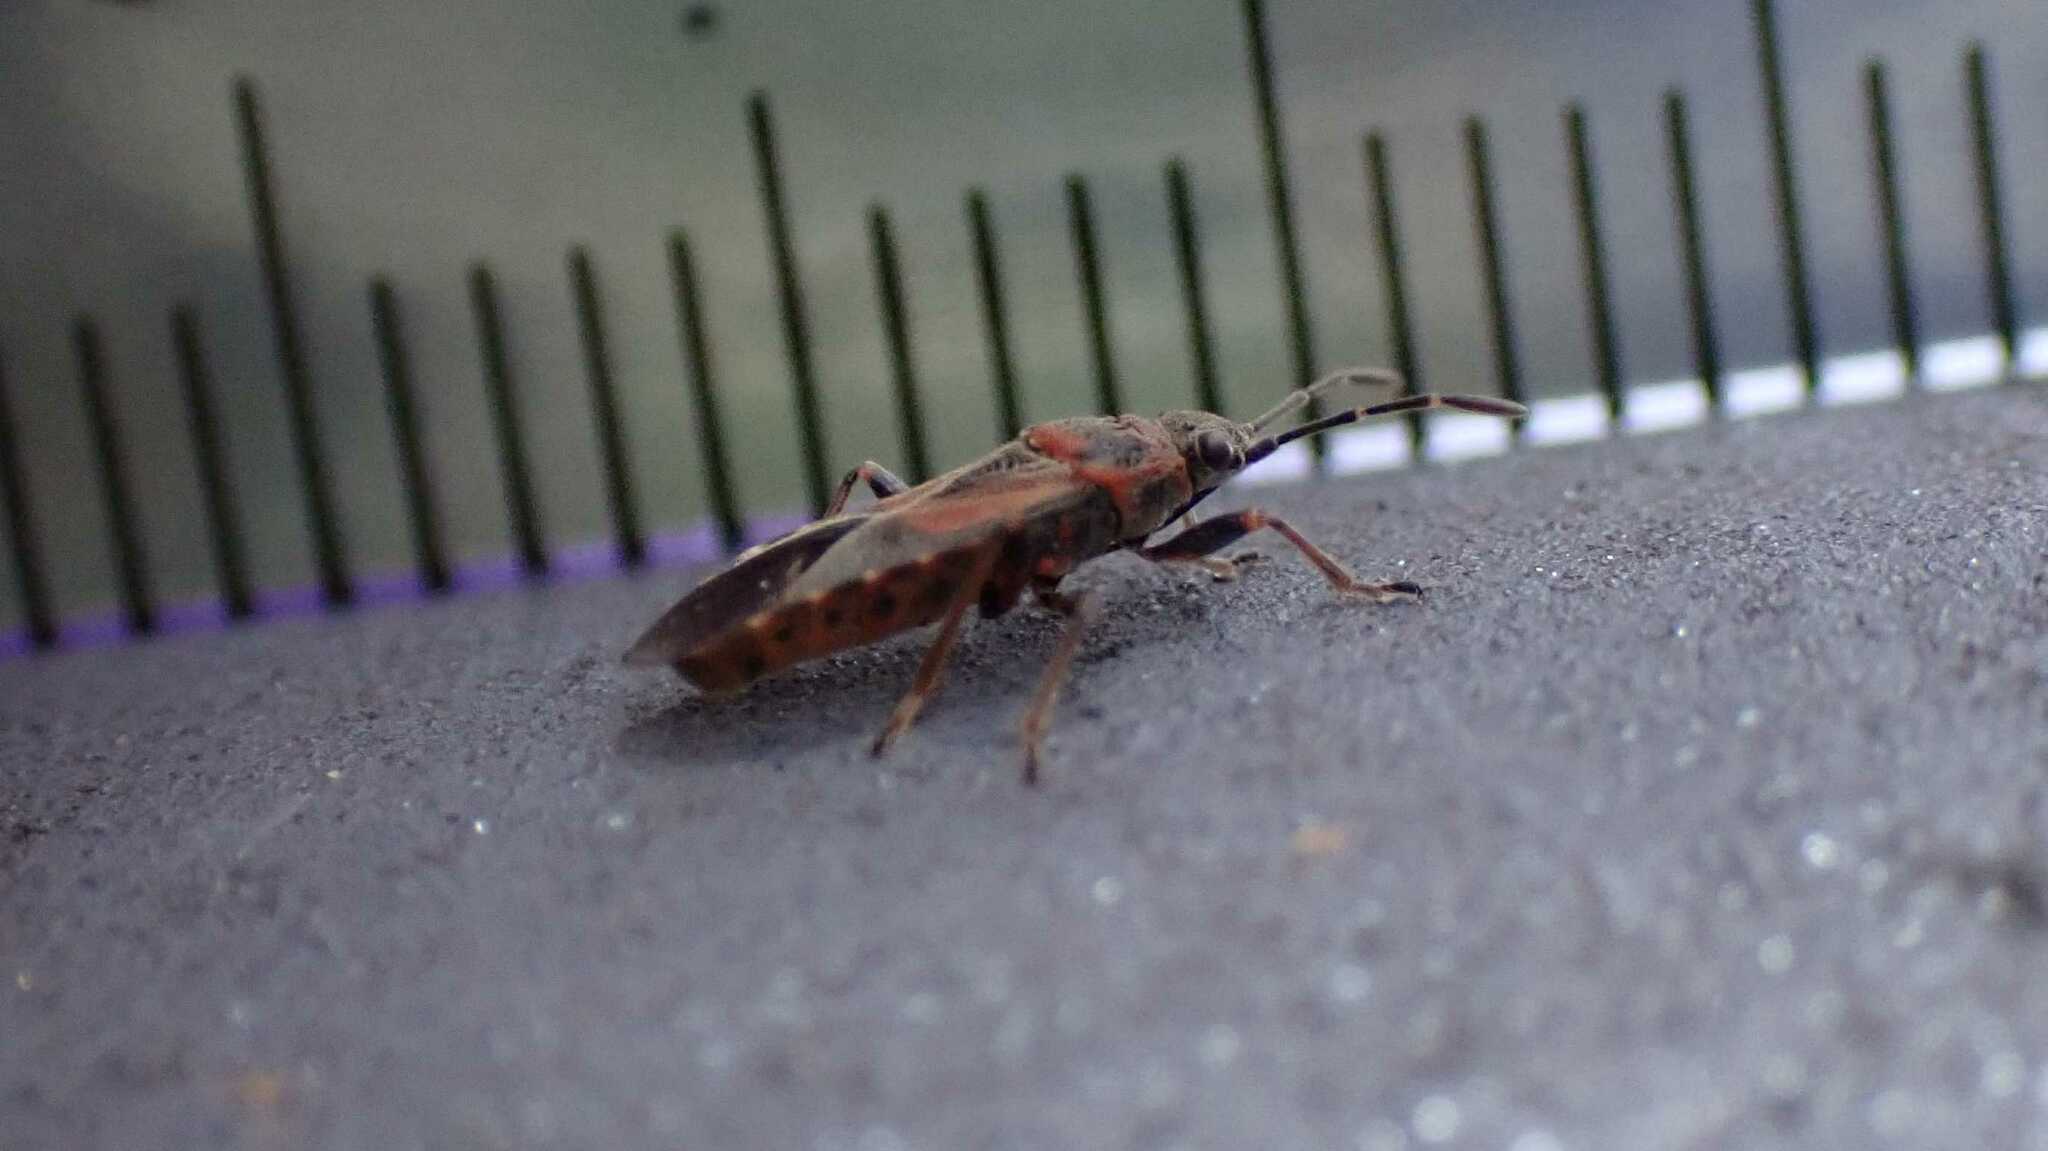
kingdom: Animalia
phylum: Arthropoda
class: Insecta
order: Hemiptera
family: Lygaeidae
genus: Arocatus
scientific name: Arocatus melanocephalus
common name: Lygaeid bug
